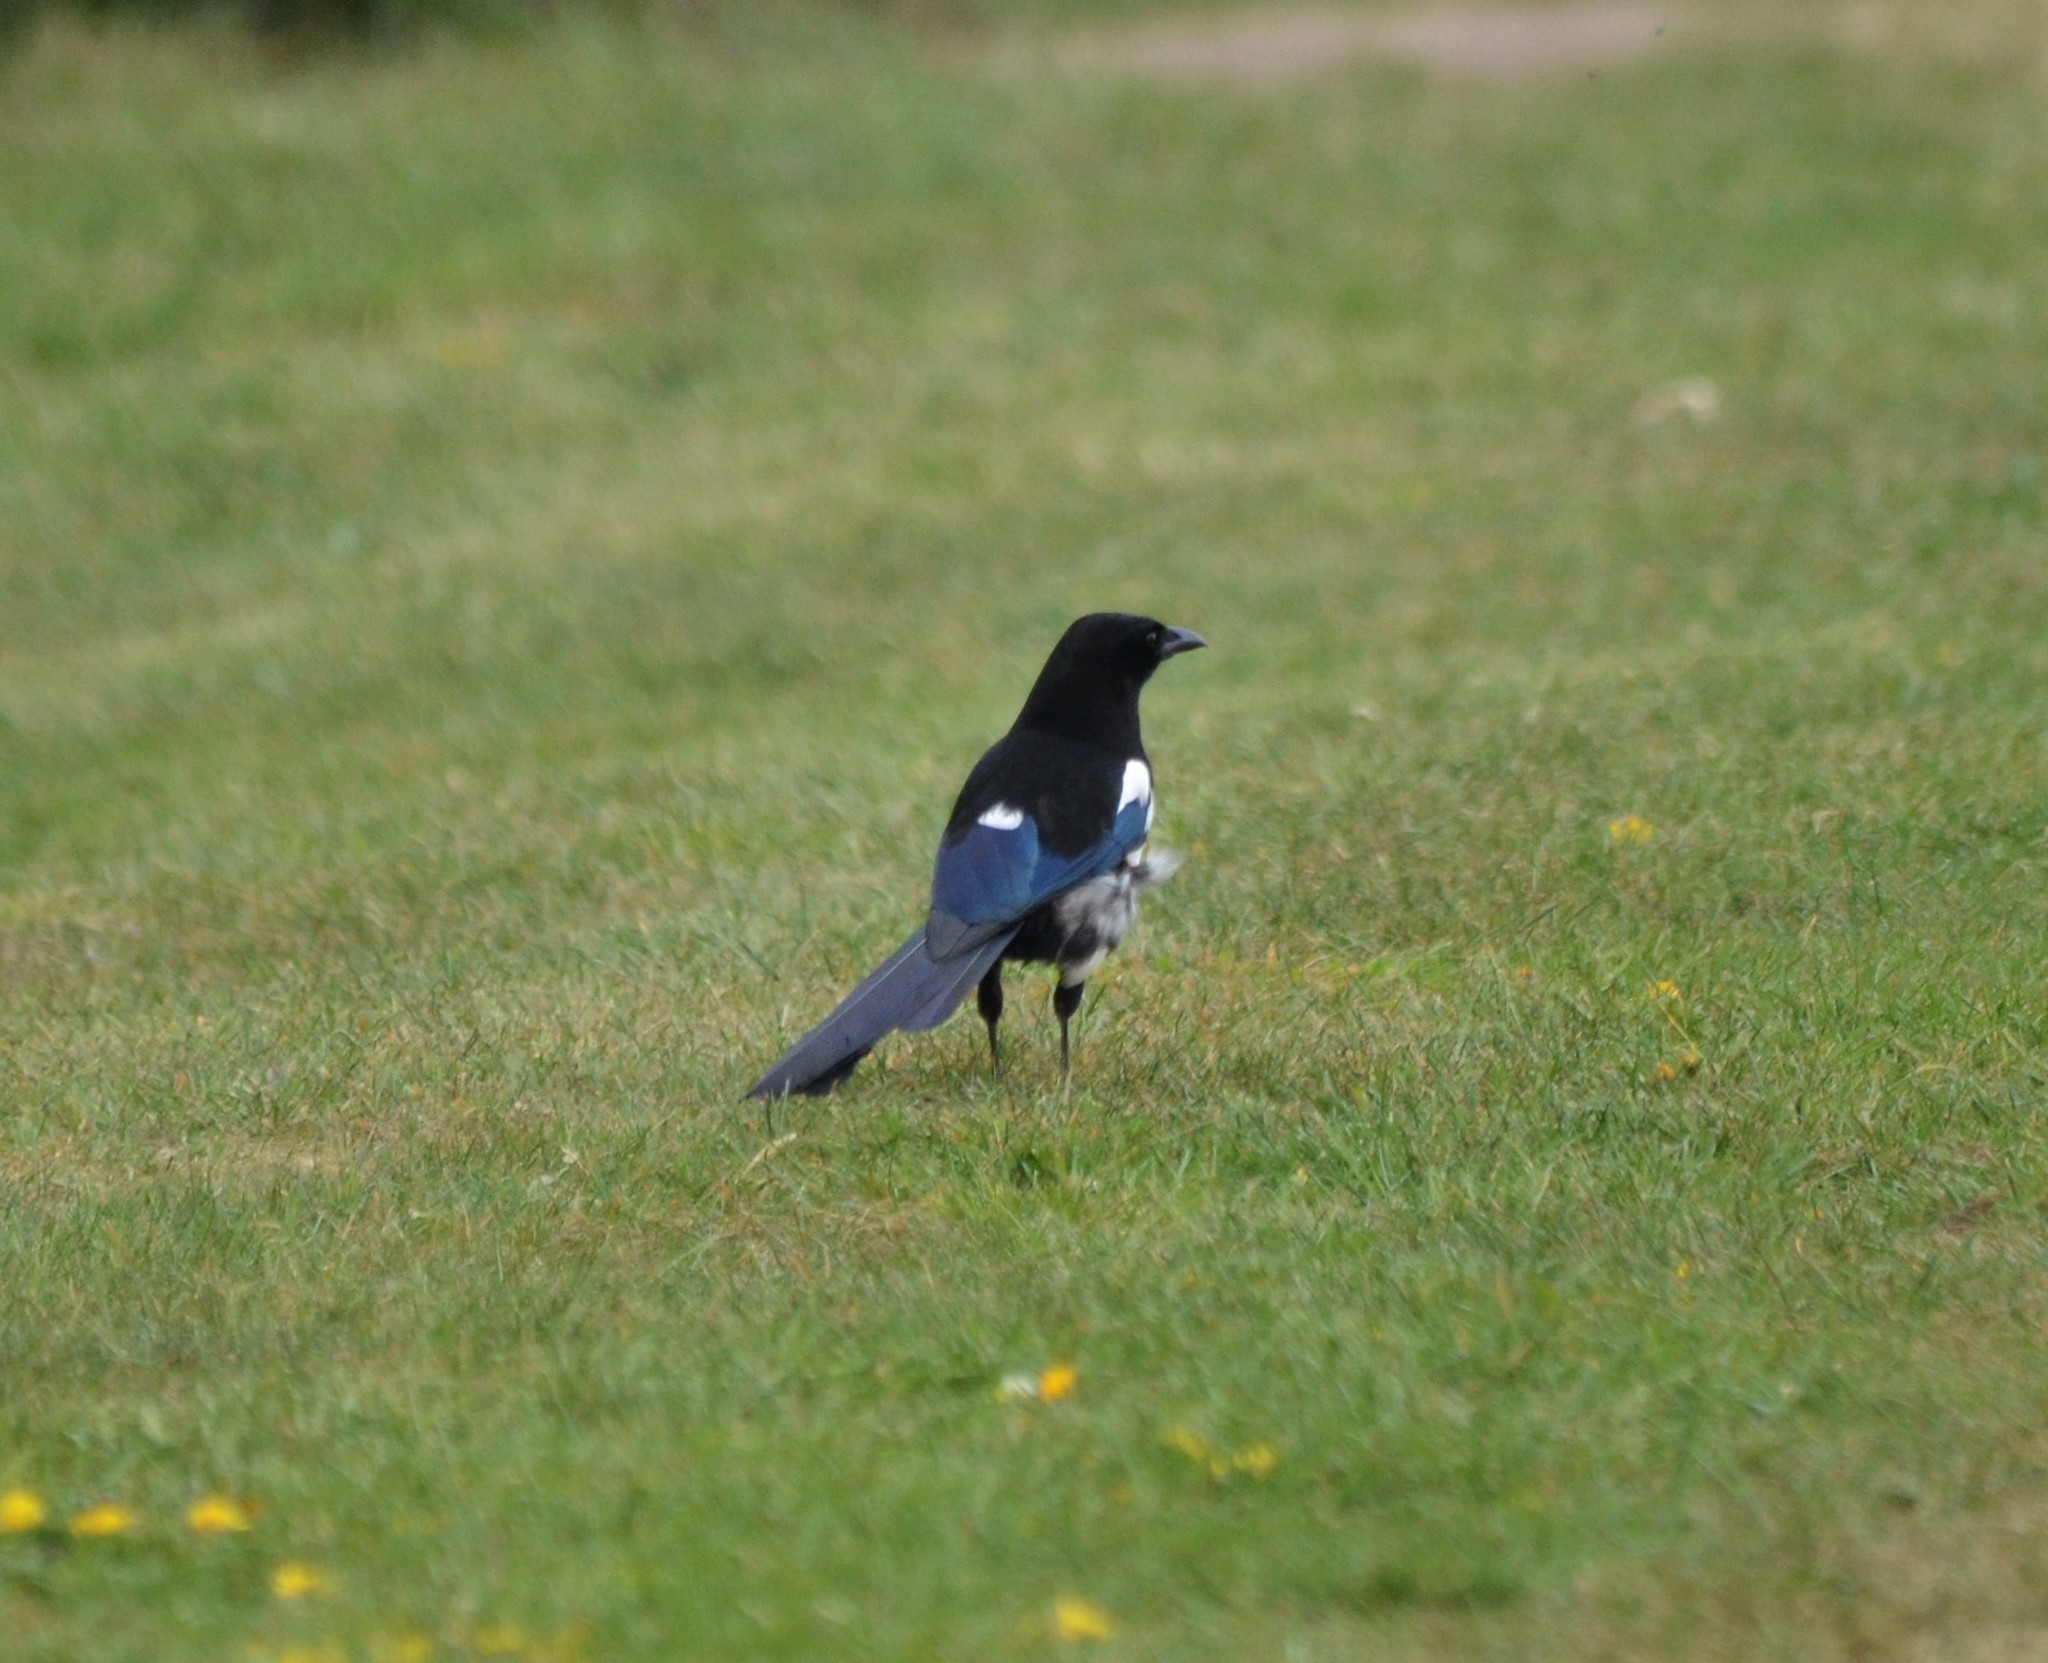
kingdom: Animalia
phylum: Chordata
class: Aves
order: Passeriformes
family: Corvidae
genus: Pica
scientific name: Pica pica
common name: Eurasian magpie
